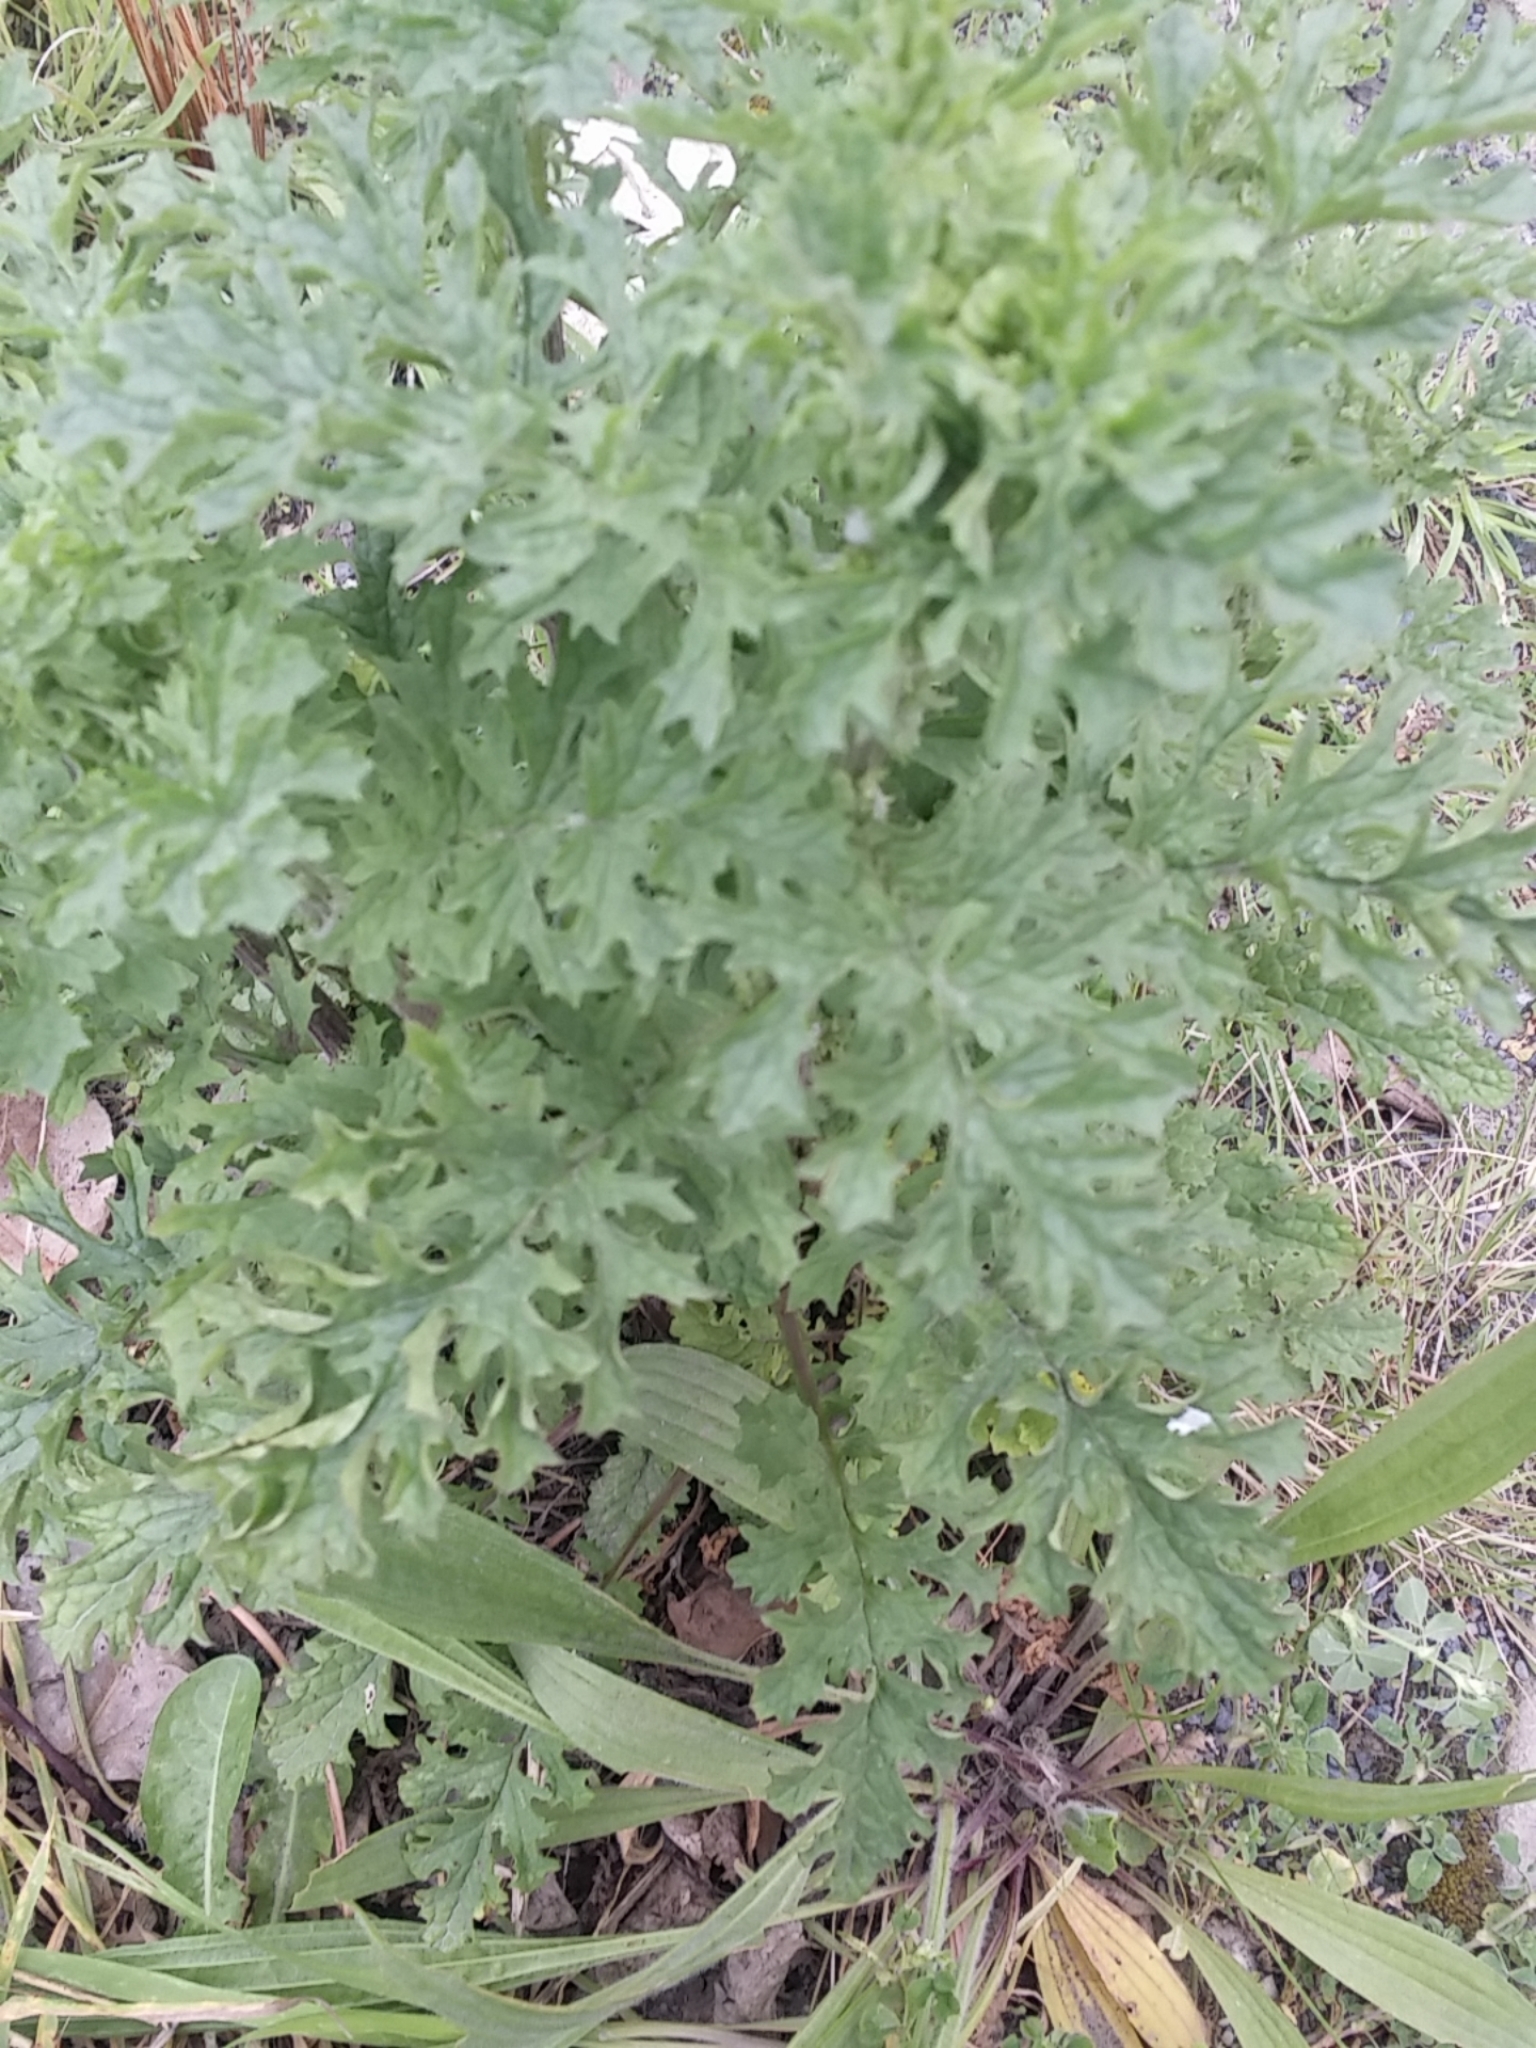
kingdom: Plantae
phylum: Tracheophyta
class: Magnoliopsida
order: Asterales
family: Asteraceae
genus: Jacobaea
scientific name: Jacobaea vulgaris
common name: Stinking willie
